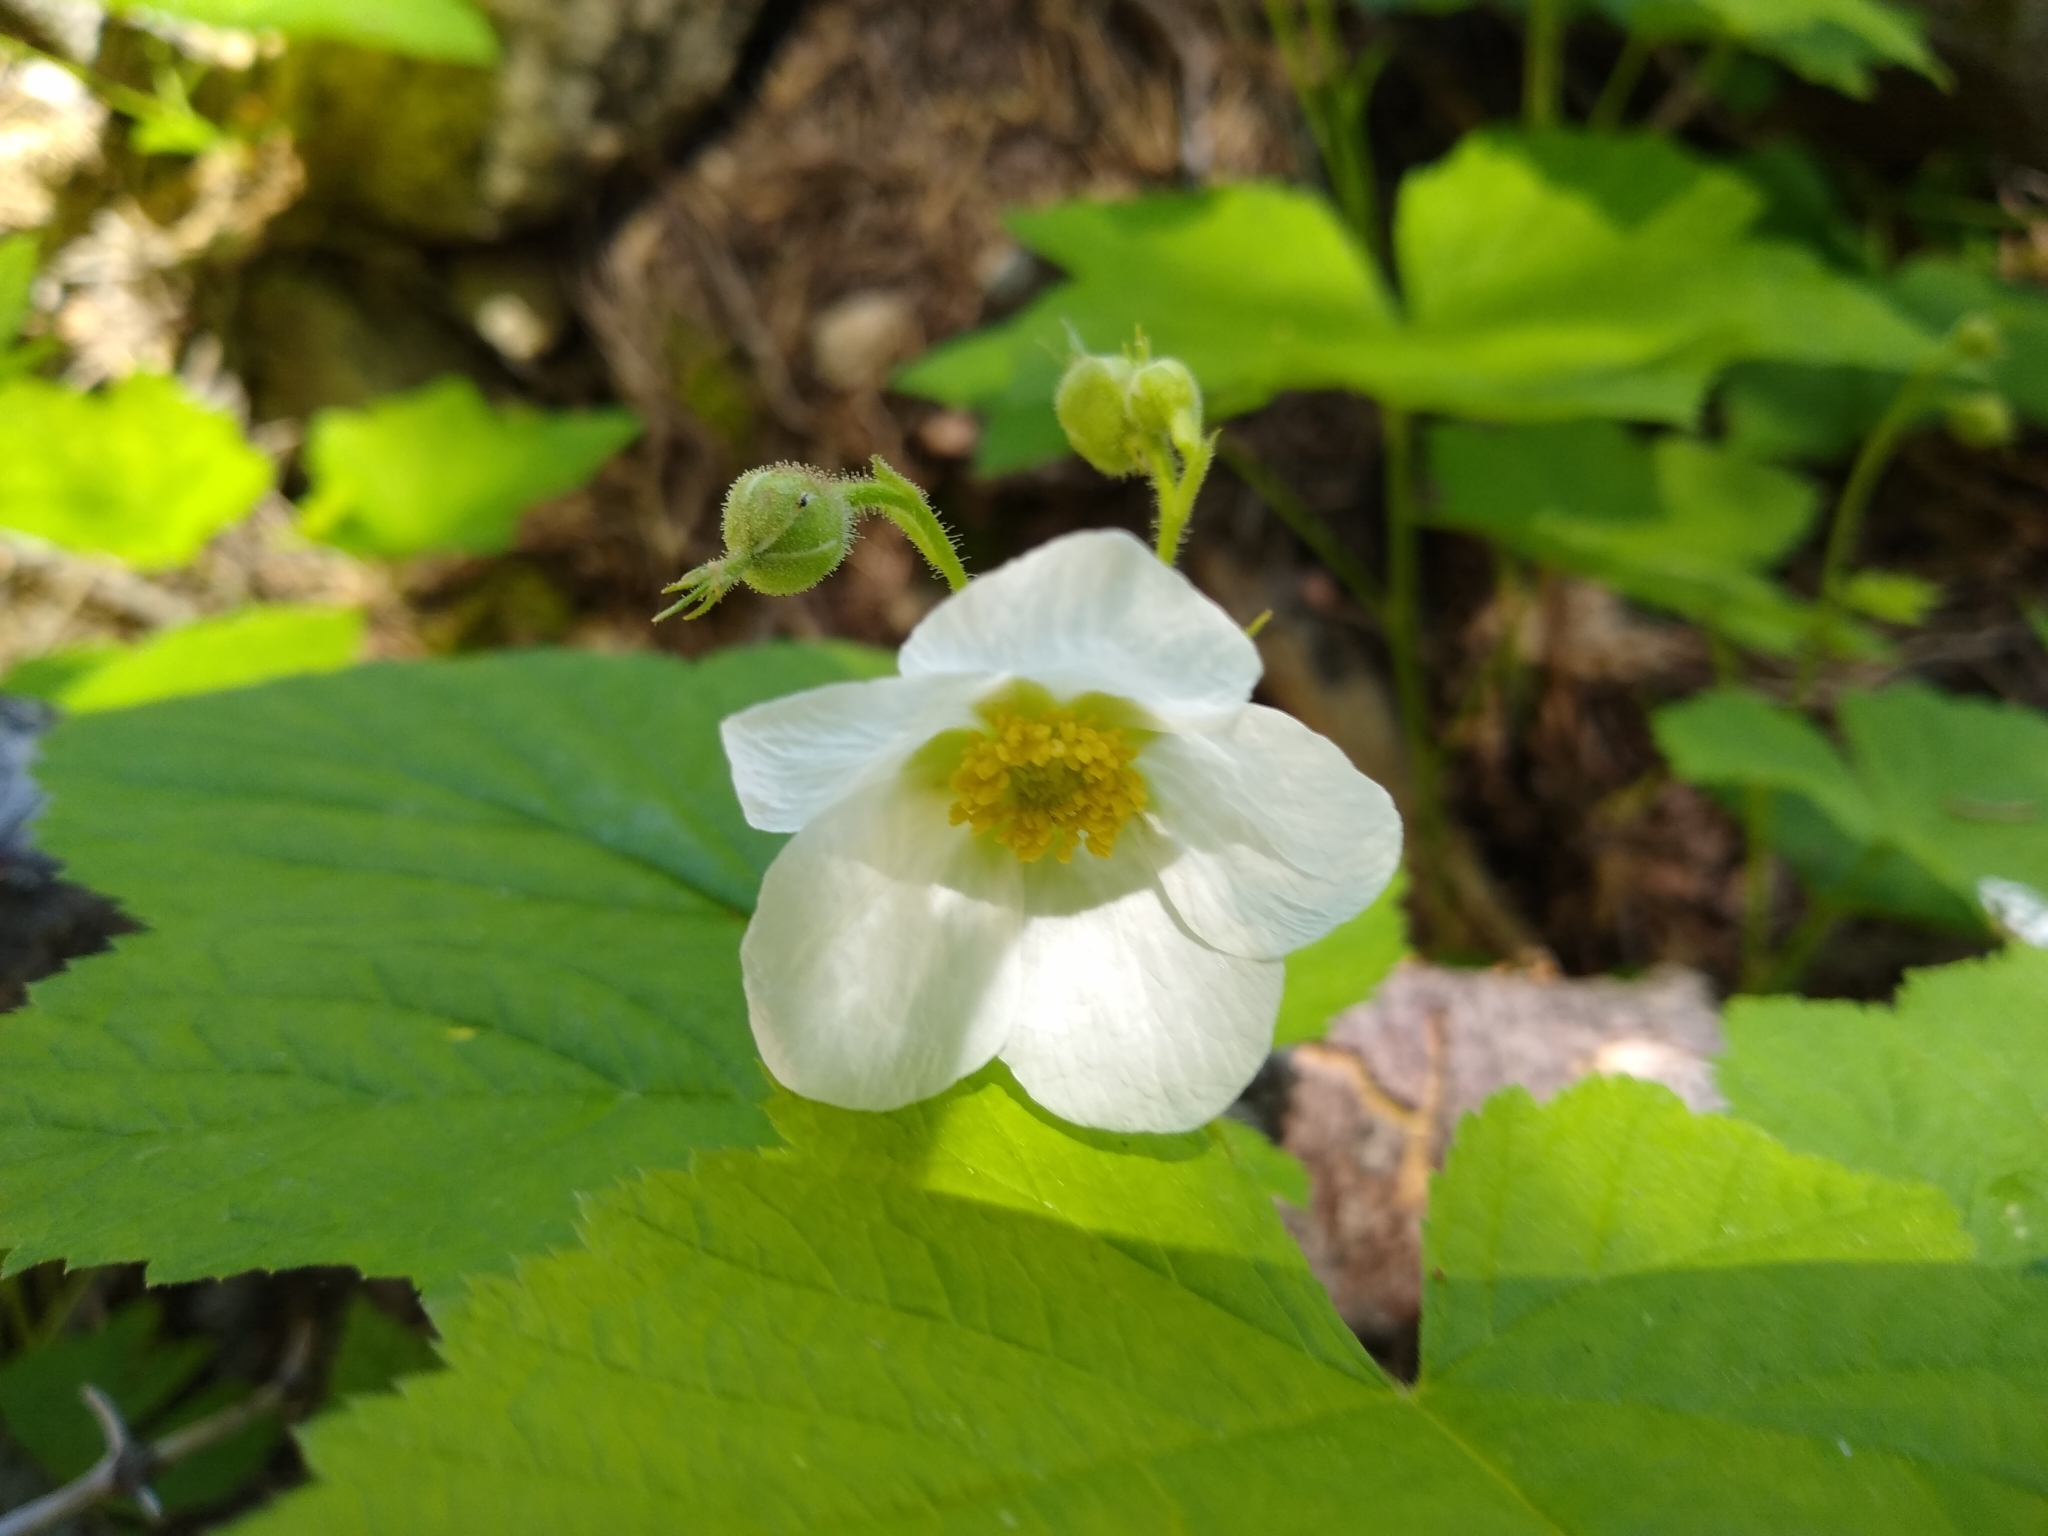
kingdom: Plantae
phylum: Tracheophyta
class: Magnoliopsida
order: Rosales
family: Rosaceae
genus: Rubus
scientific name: Rubus parviflorus
